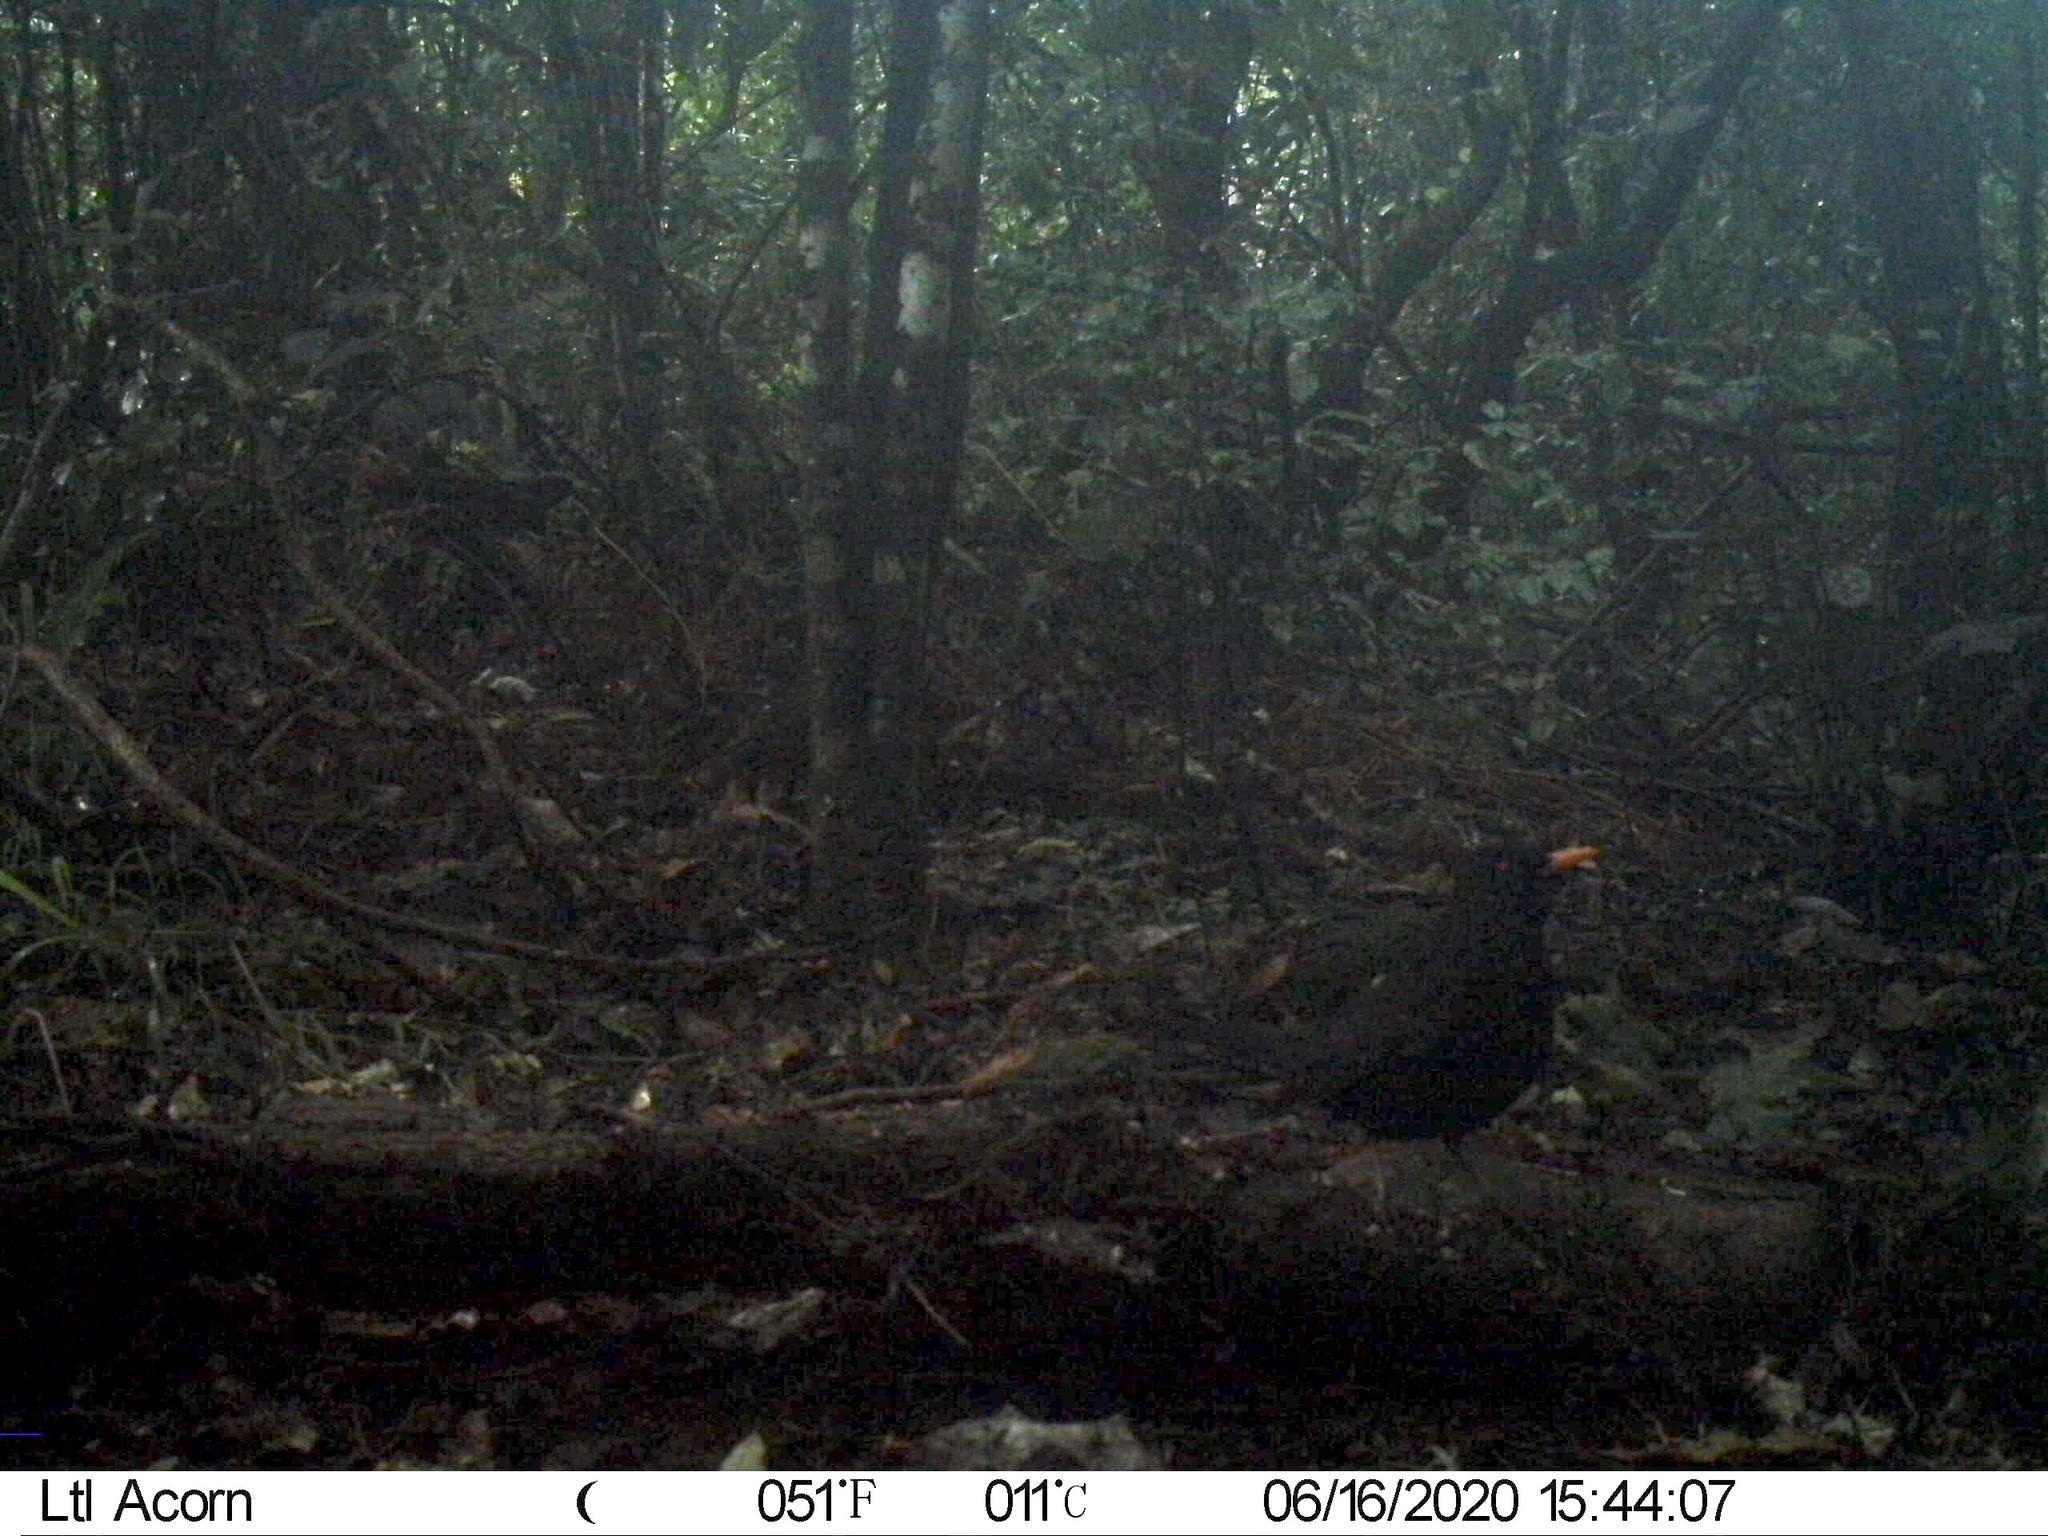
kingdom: Animalia
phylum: Chordata
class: Aves
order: Passeriformes
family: Turdidae
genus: Turdus
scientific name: Turdus merula
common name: Common blackbird
